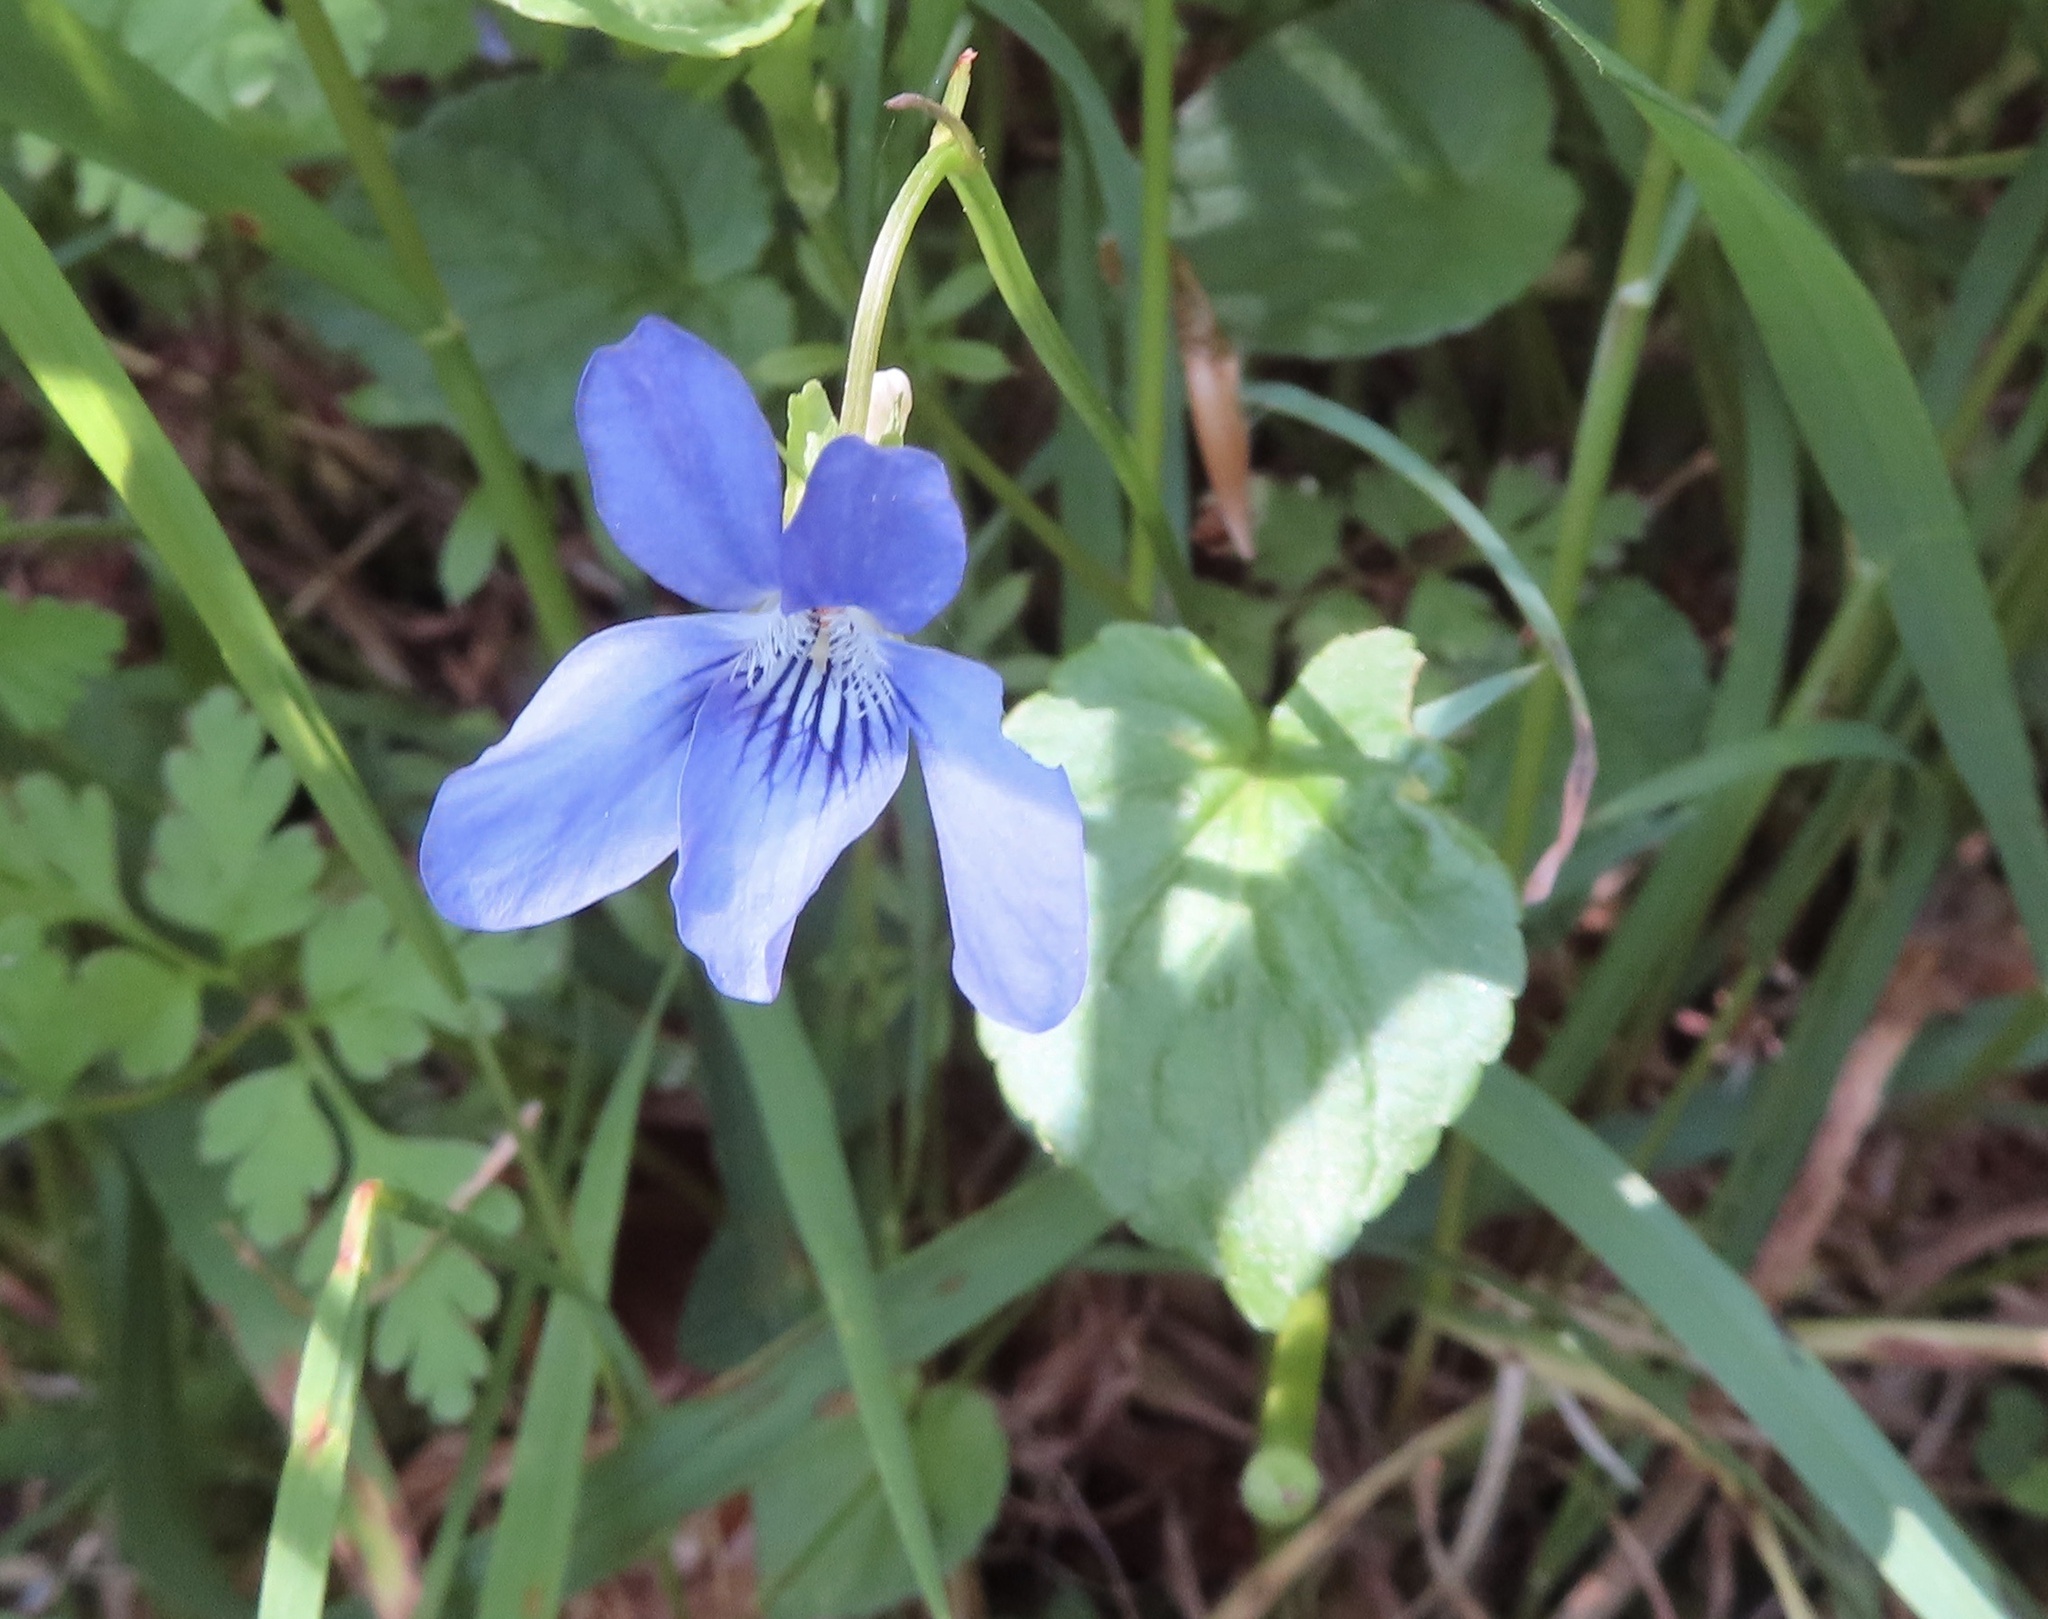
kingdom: Plantae
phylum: Tracheophyta
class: Magnoliopsida
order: Malpighiales
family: Violaceae
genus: Viola
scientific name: Viola riviniana
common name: Common dog-violet
